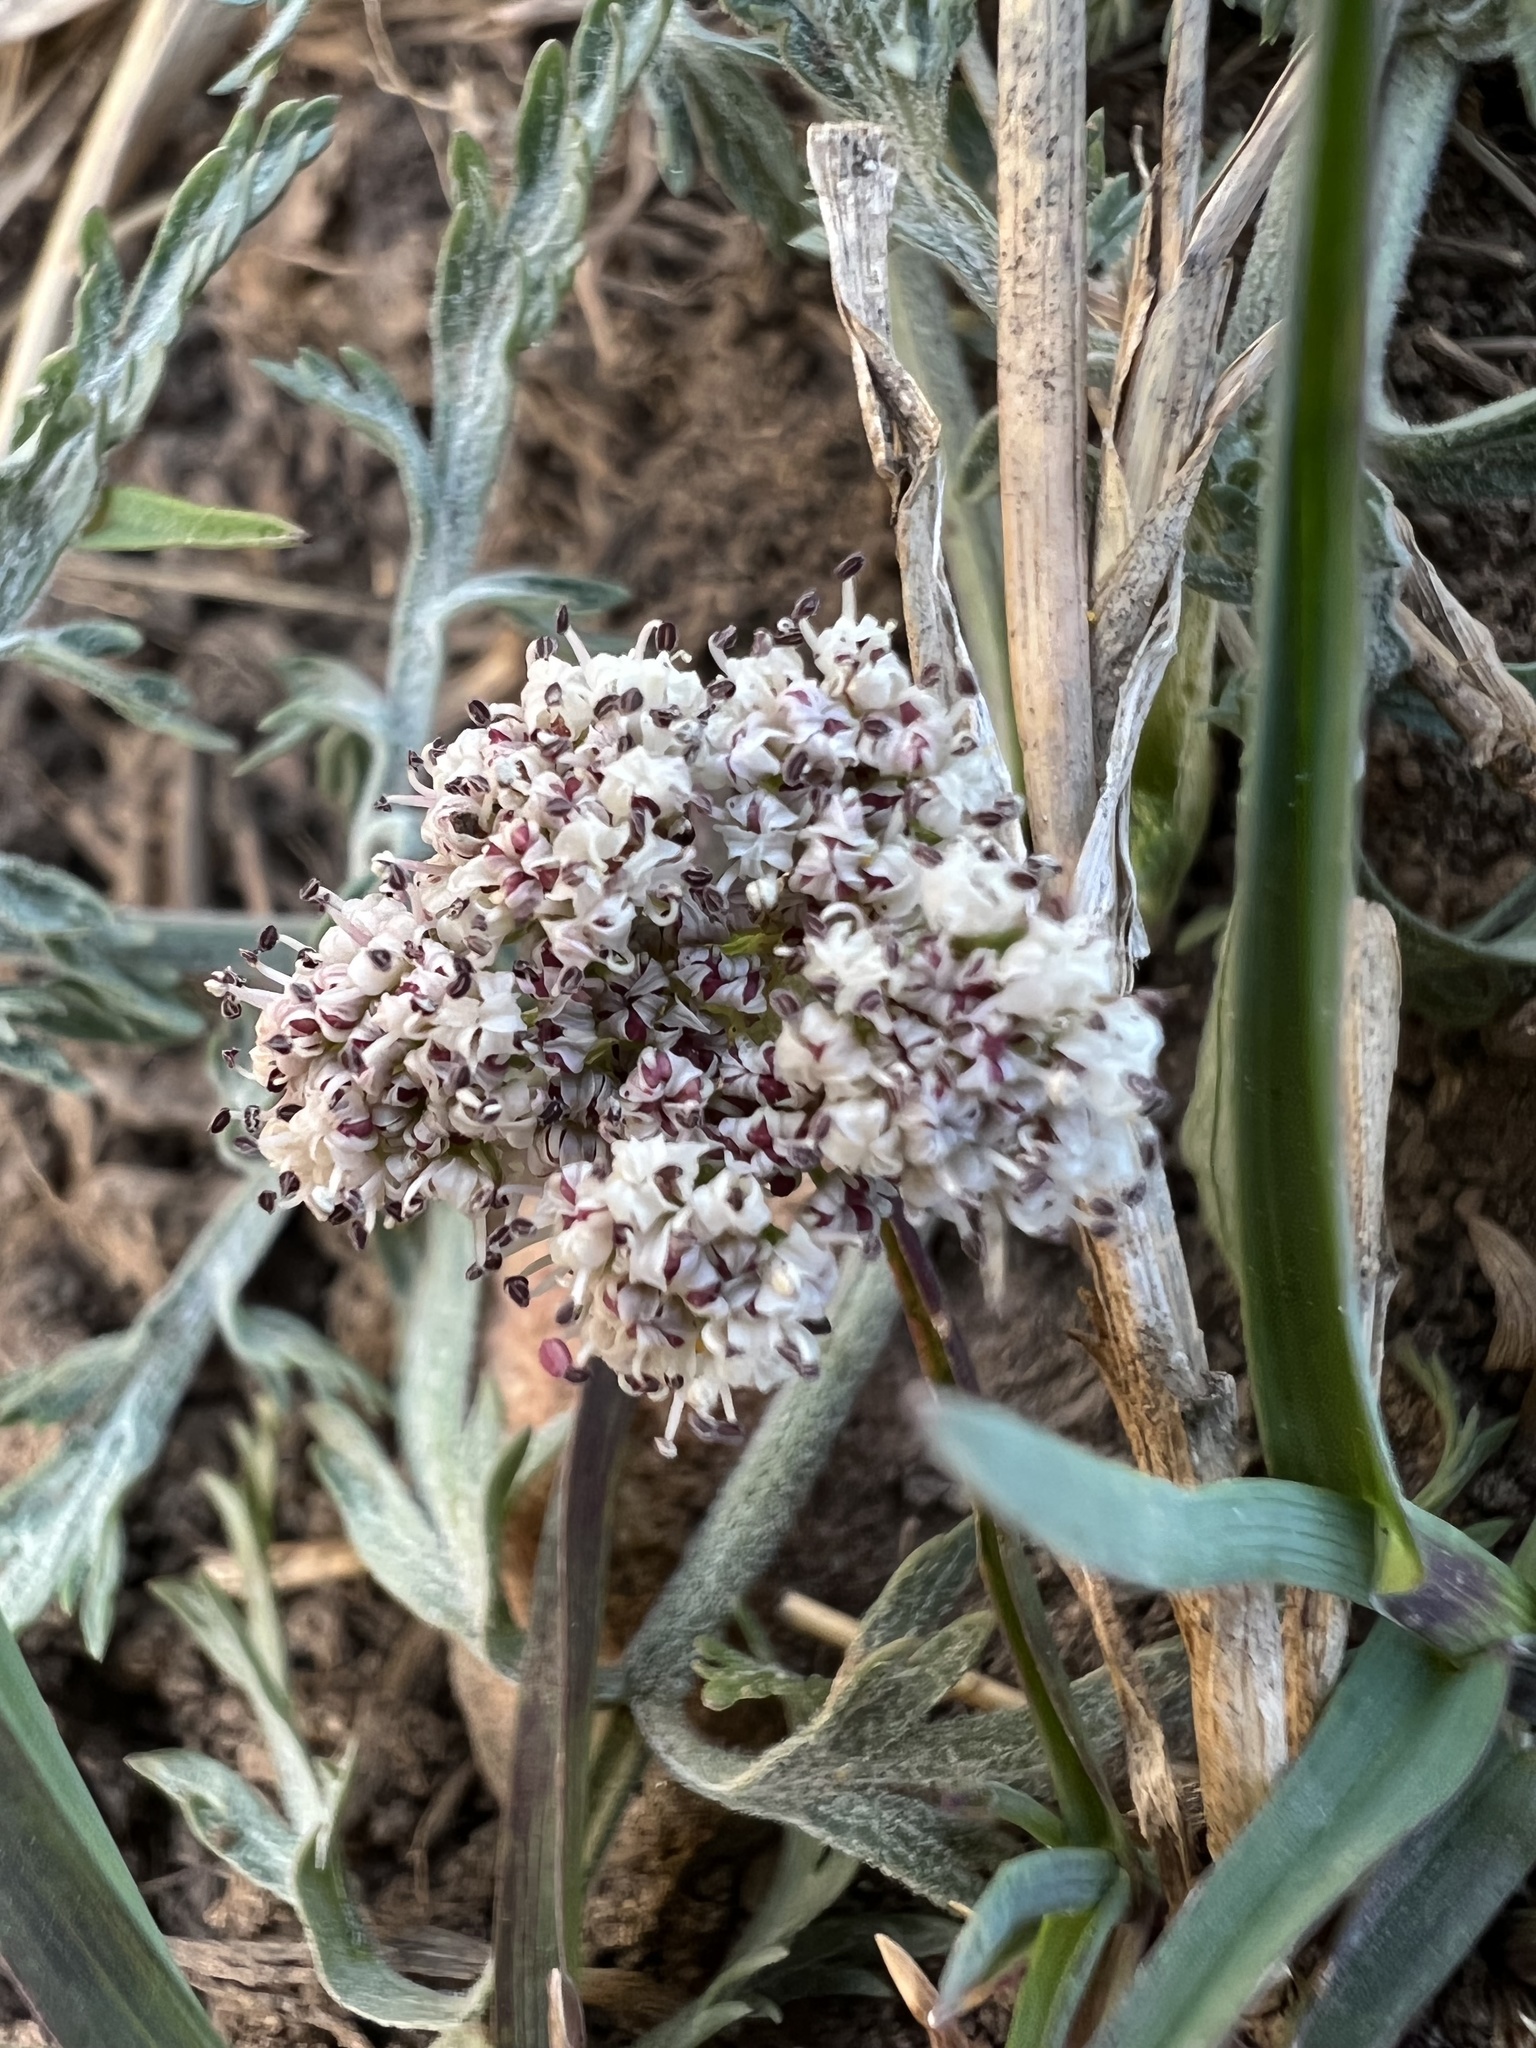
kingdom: Plantae
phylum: Tracheophyta
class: Magnoliopsida
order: Apiales
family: Apiaceae
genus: Lomatium
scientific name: Lomatium orientale
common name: Eastern cous
